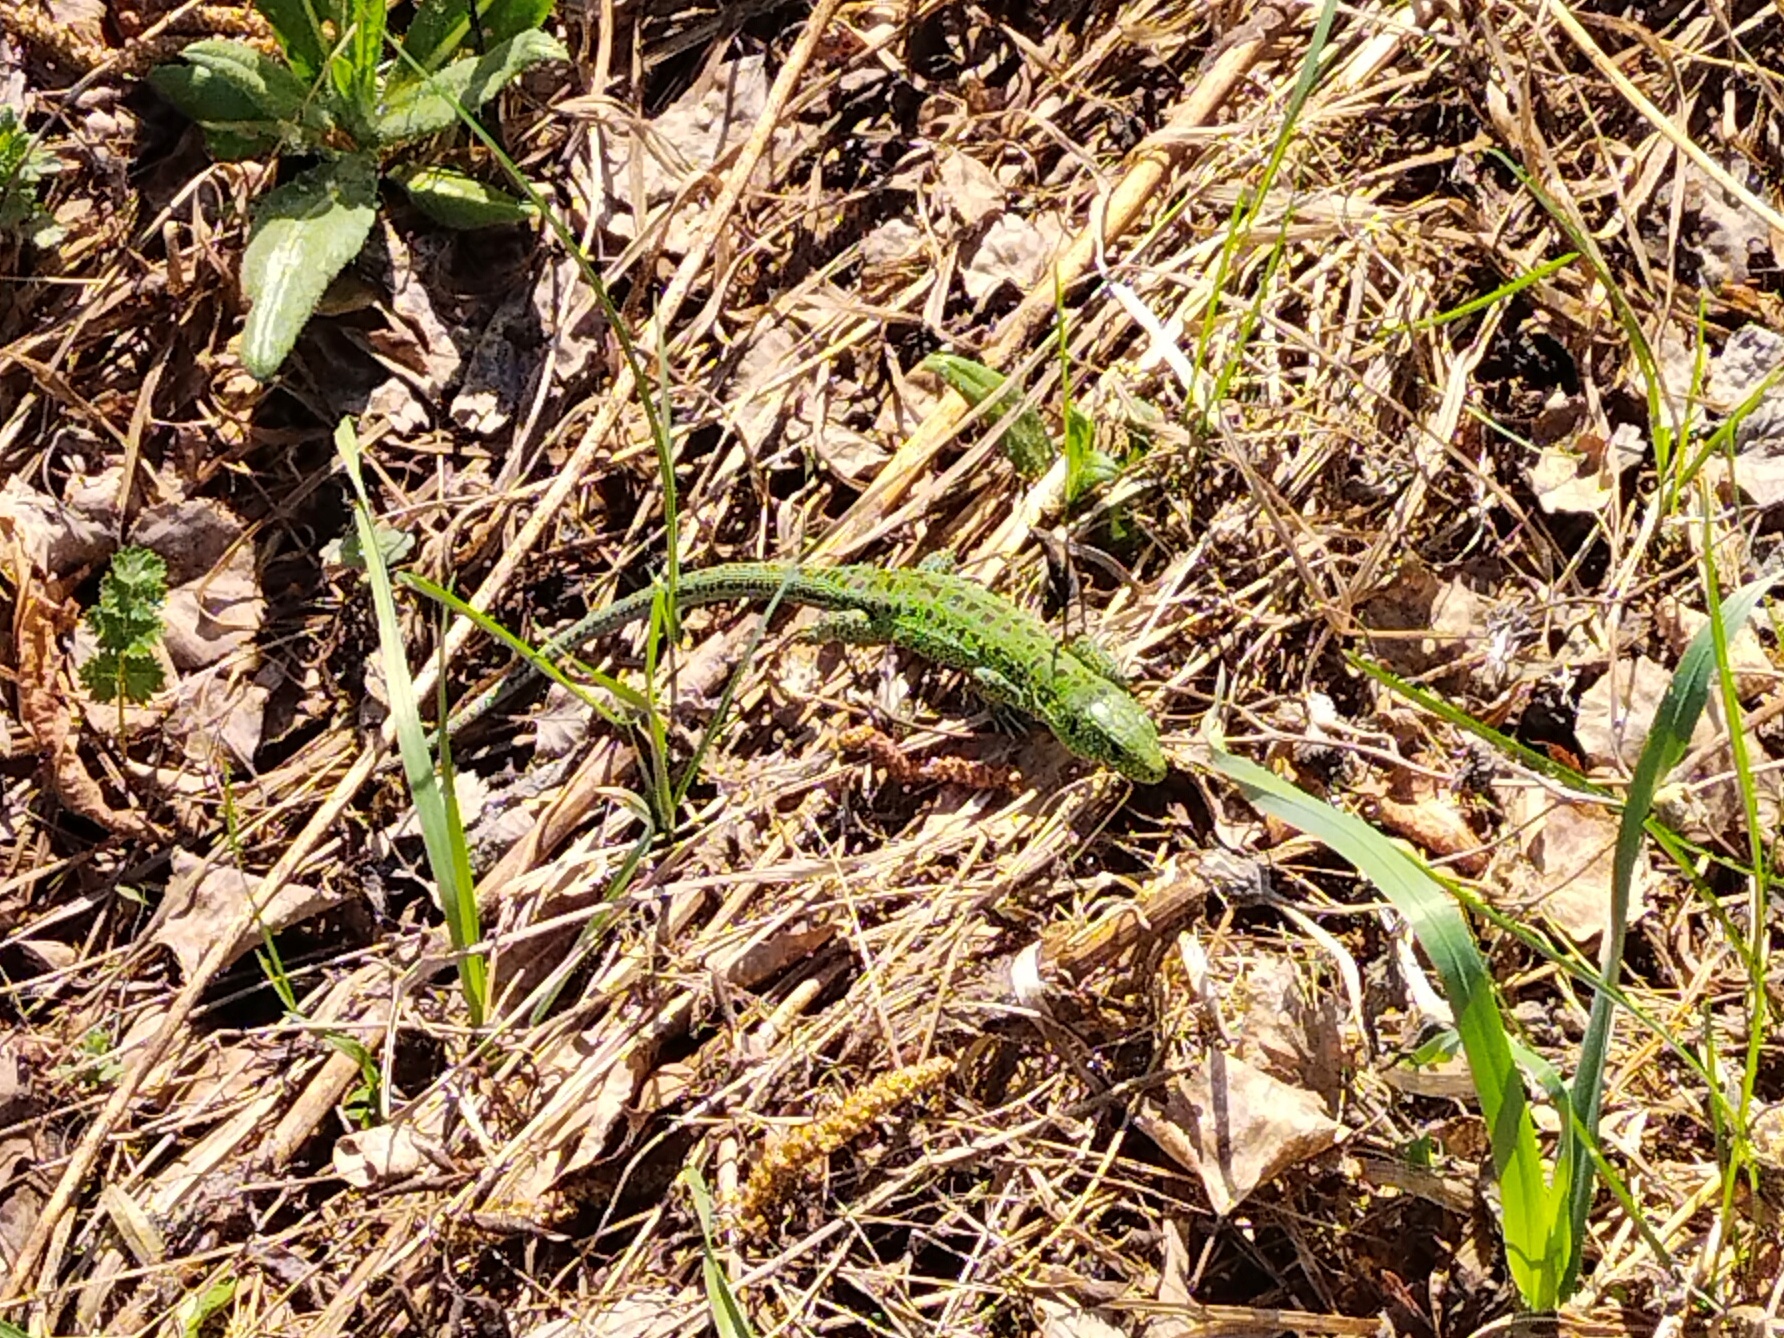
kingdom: Animalia
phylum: Chordata
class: Squamata
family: Lacertidae
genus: Lacerta
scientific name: Lacerta agilis
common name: Sand lizard
